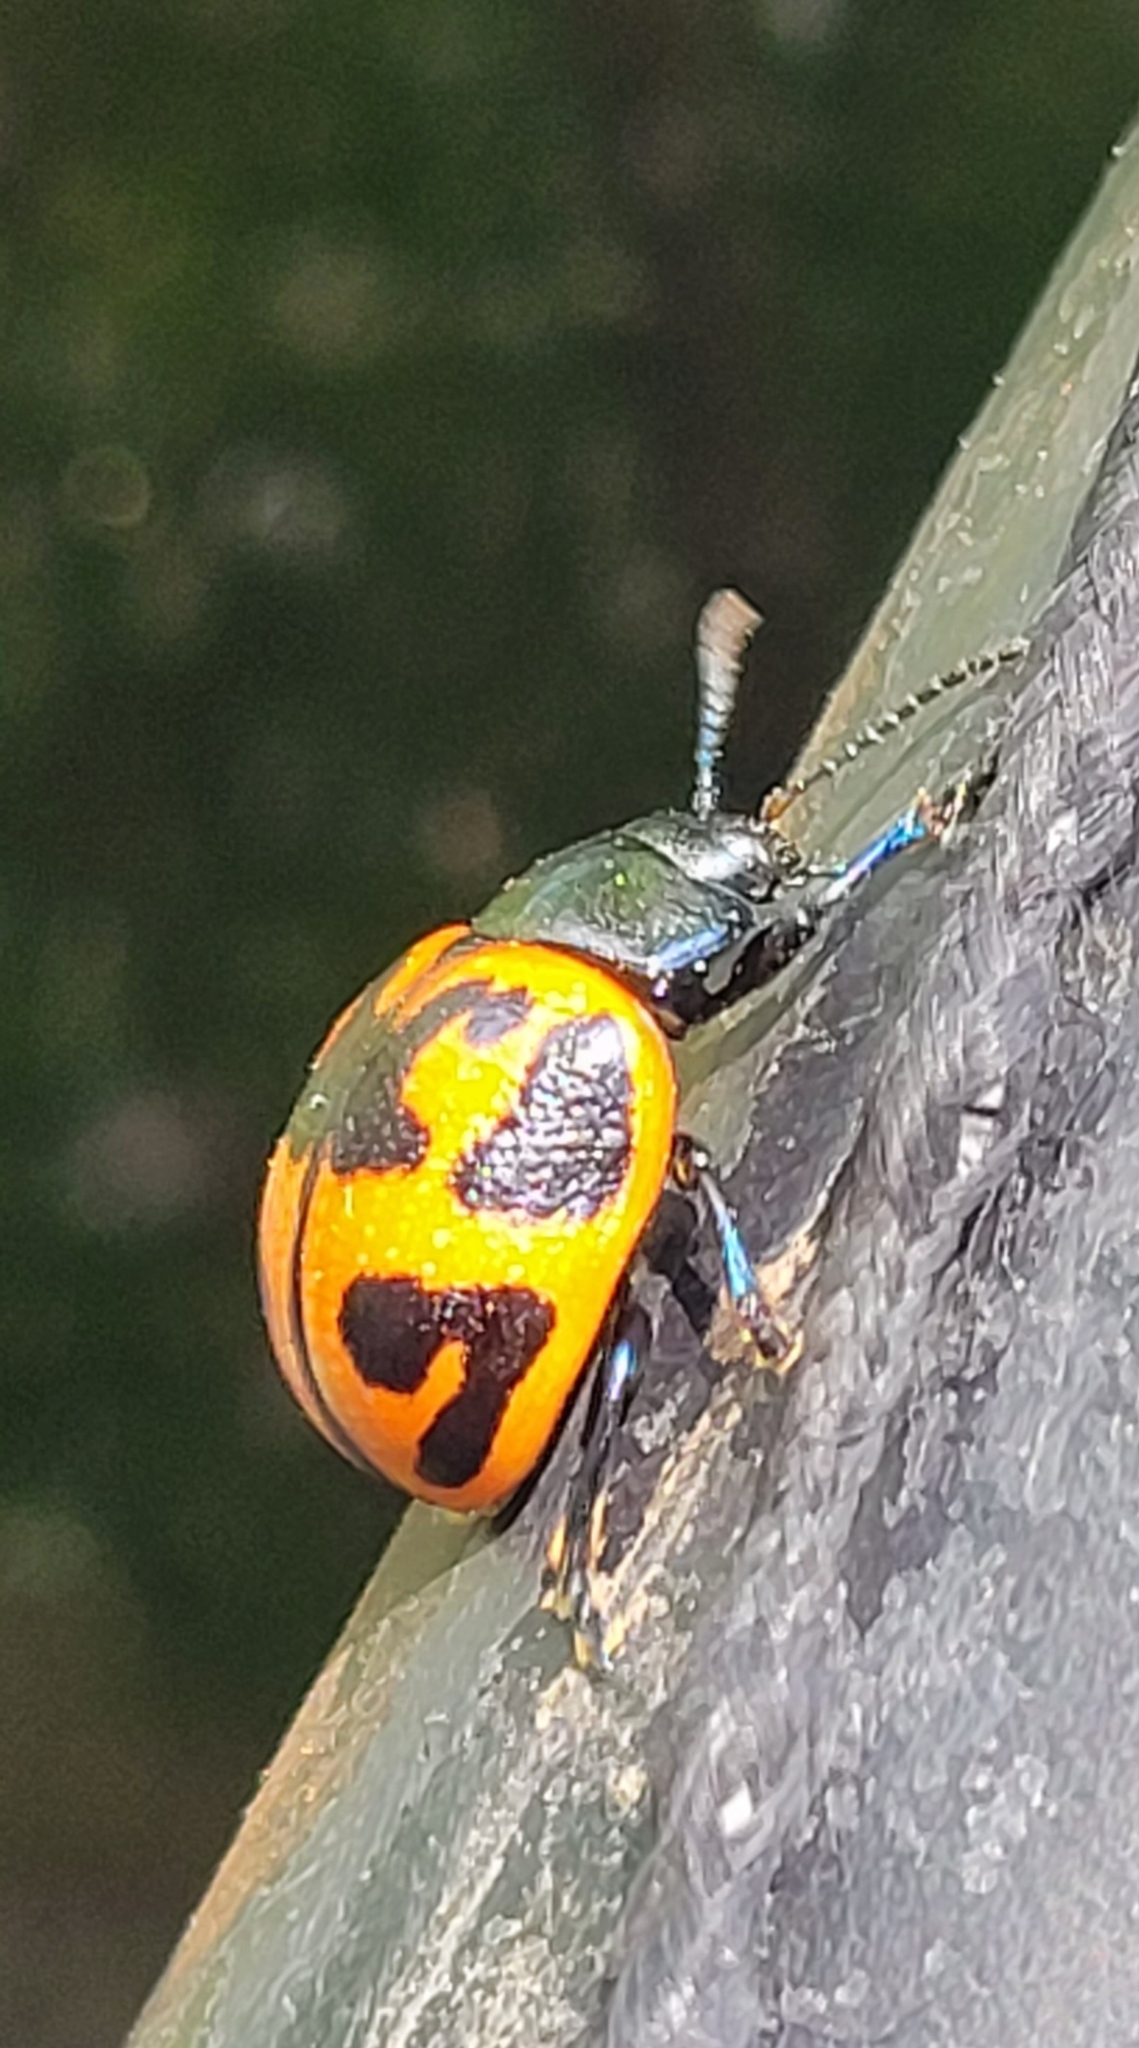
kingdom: Animalia
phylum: Arthropoda
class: Insecta
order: Coleoptera
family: Chrysomelidae
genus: Labidomera
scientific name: Labidomera clivicollis
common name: Swamp milkweed leaf beetle
